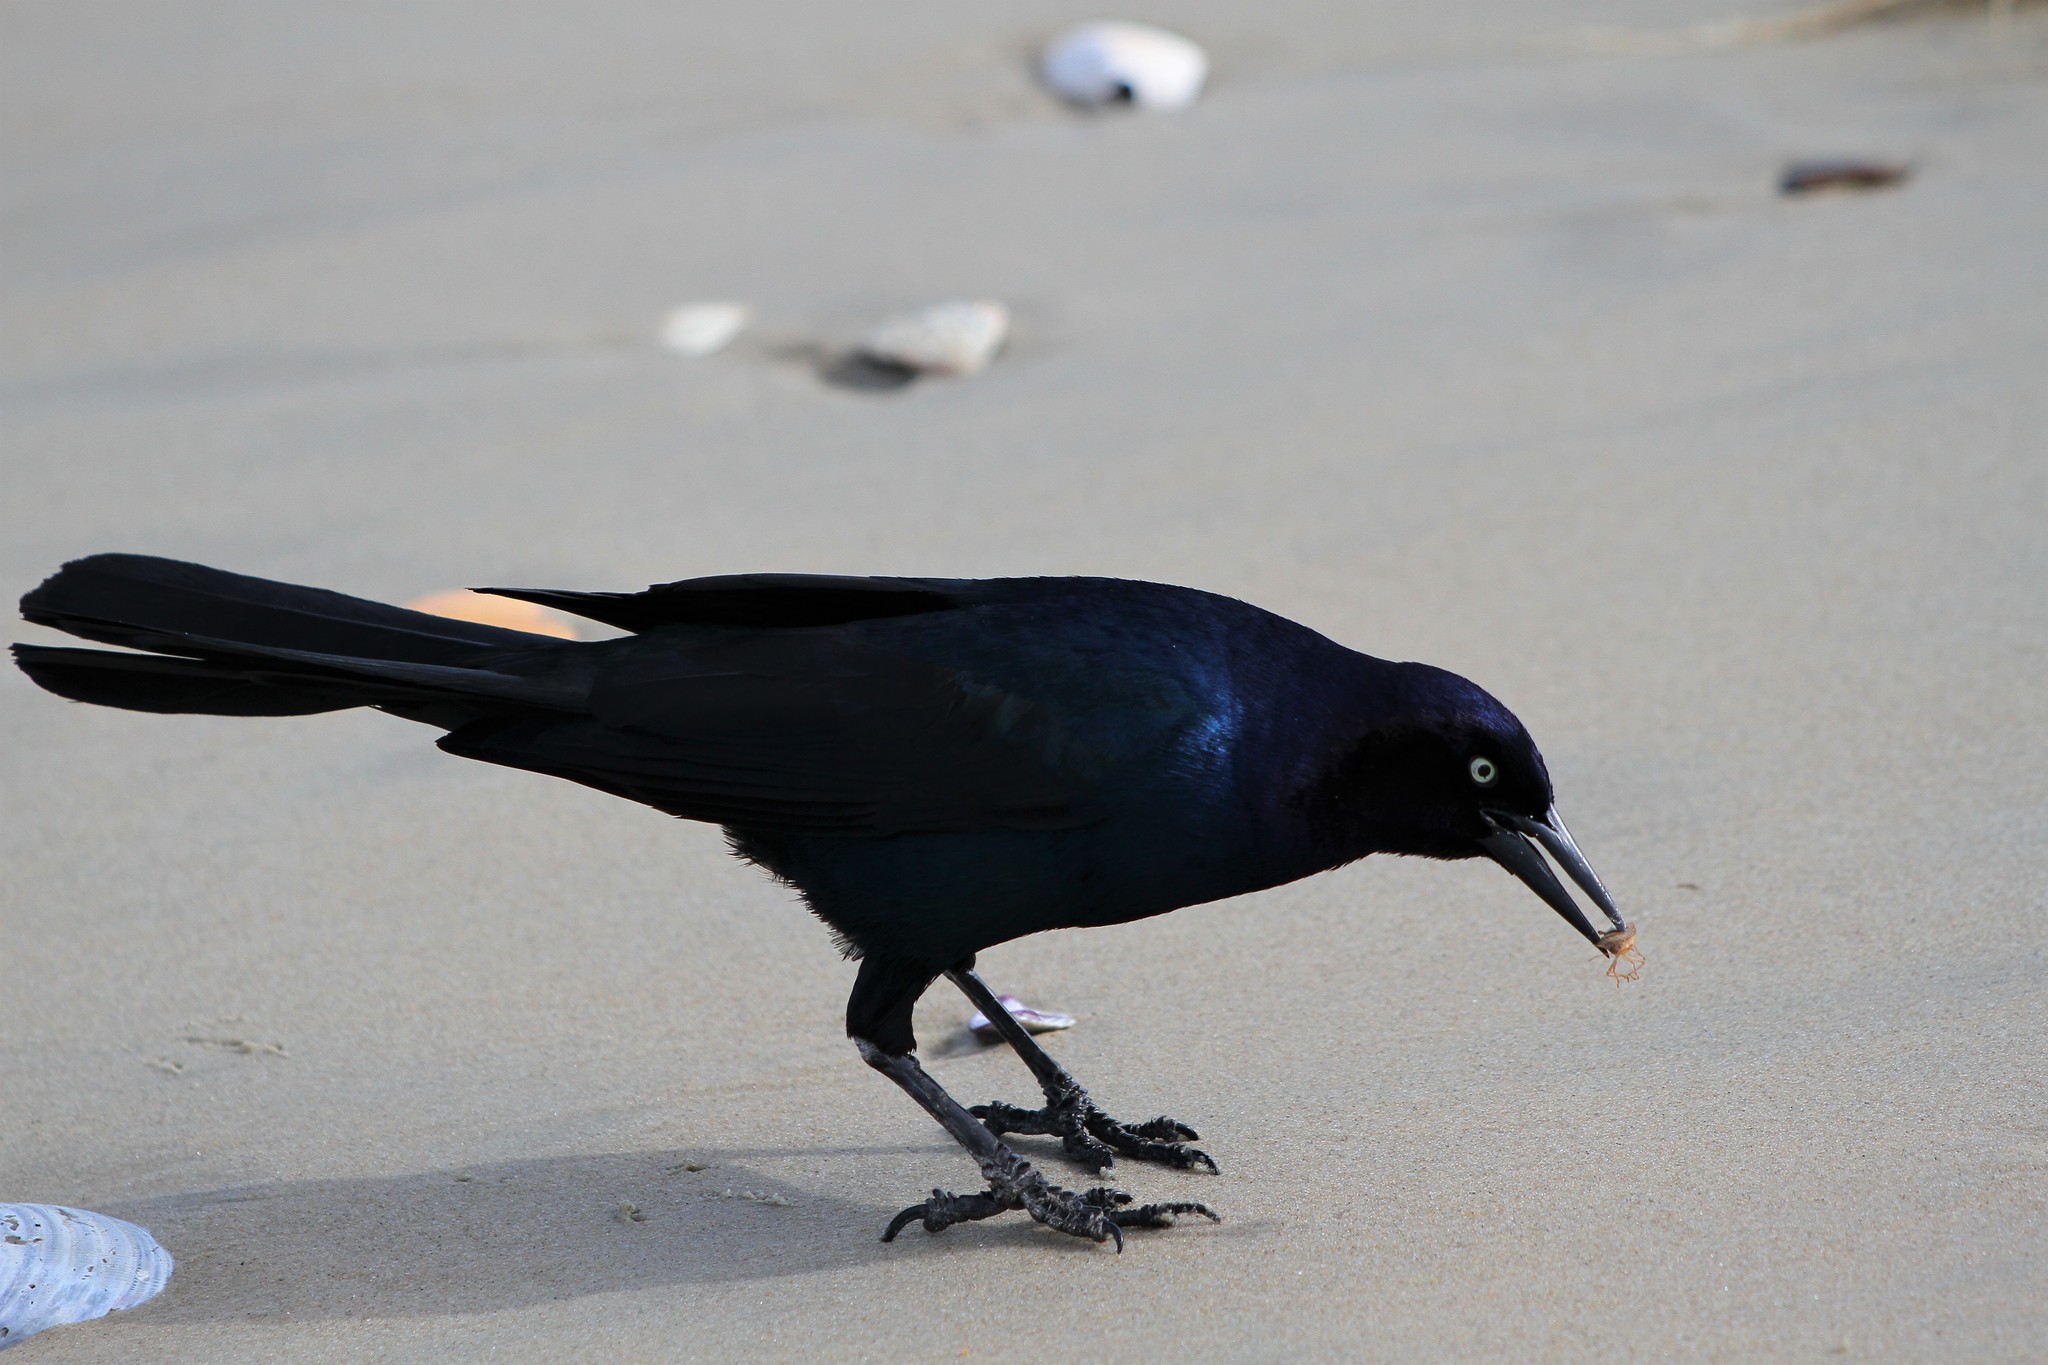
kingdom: Animalia
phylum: Chordata
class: Aves
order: Passeriformes
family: Icteridae
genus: Quiscalus
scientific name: Quiscalus major
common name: Boat-tailed grackle
